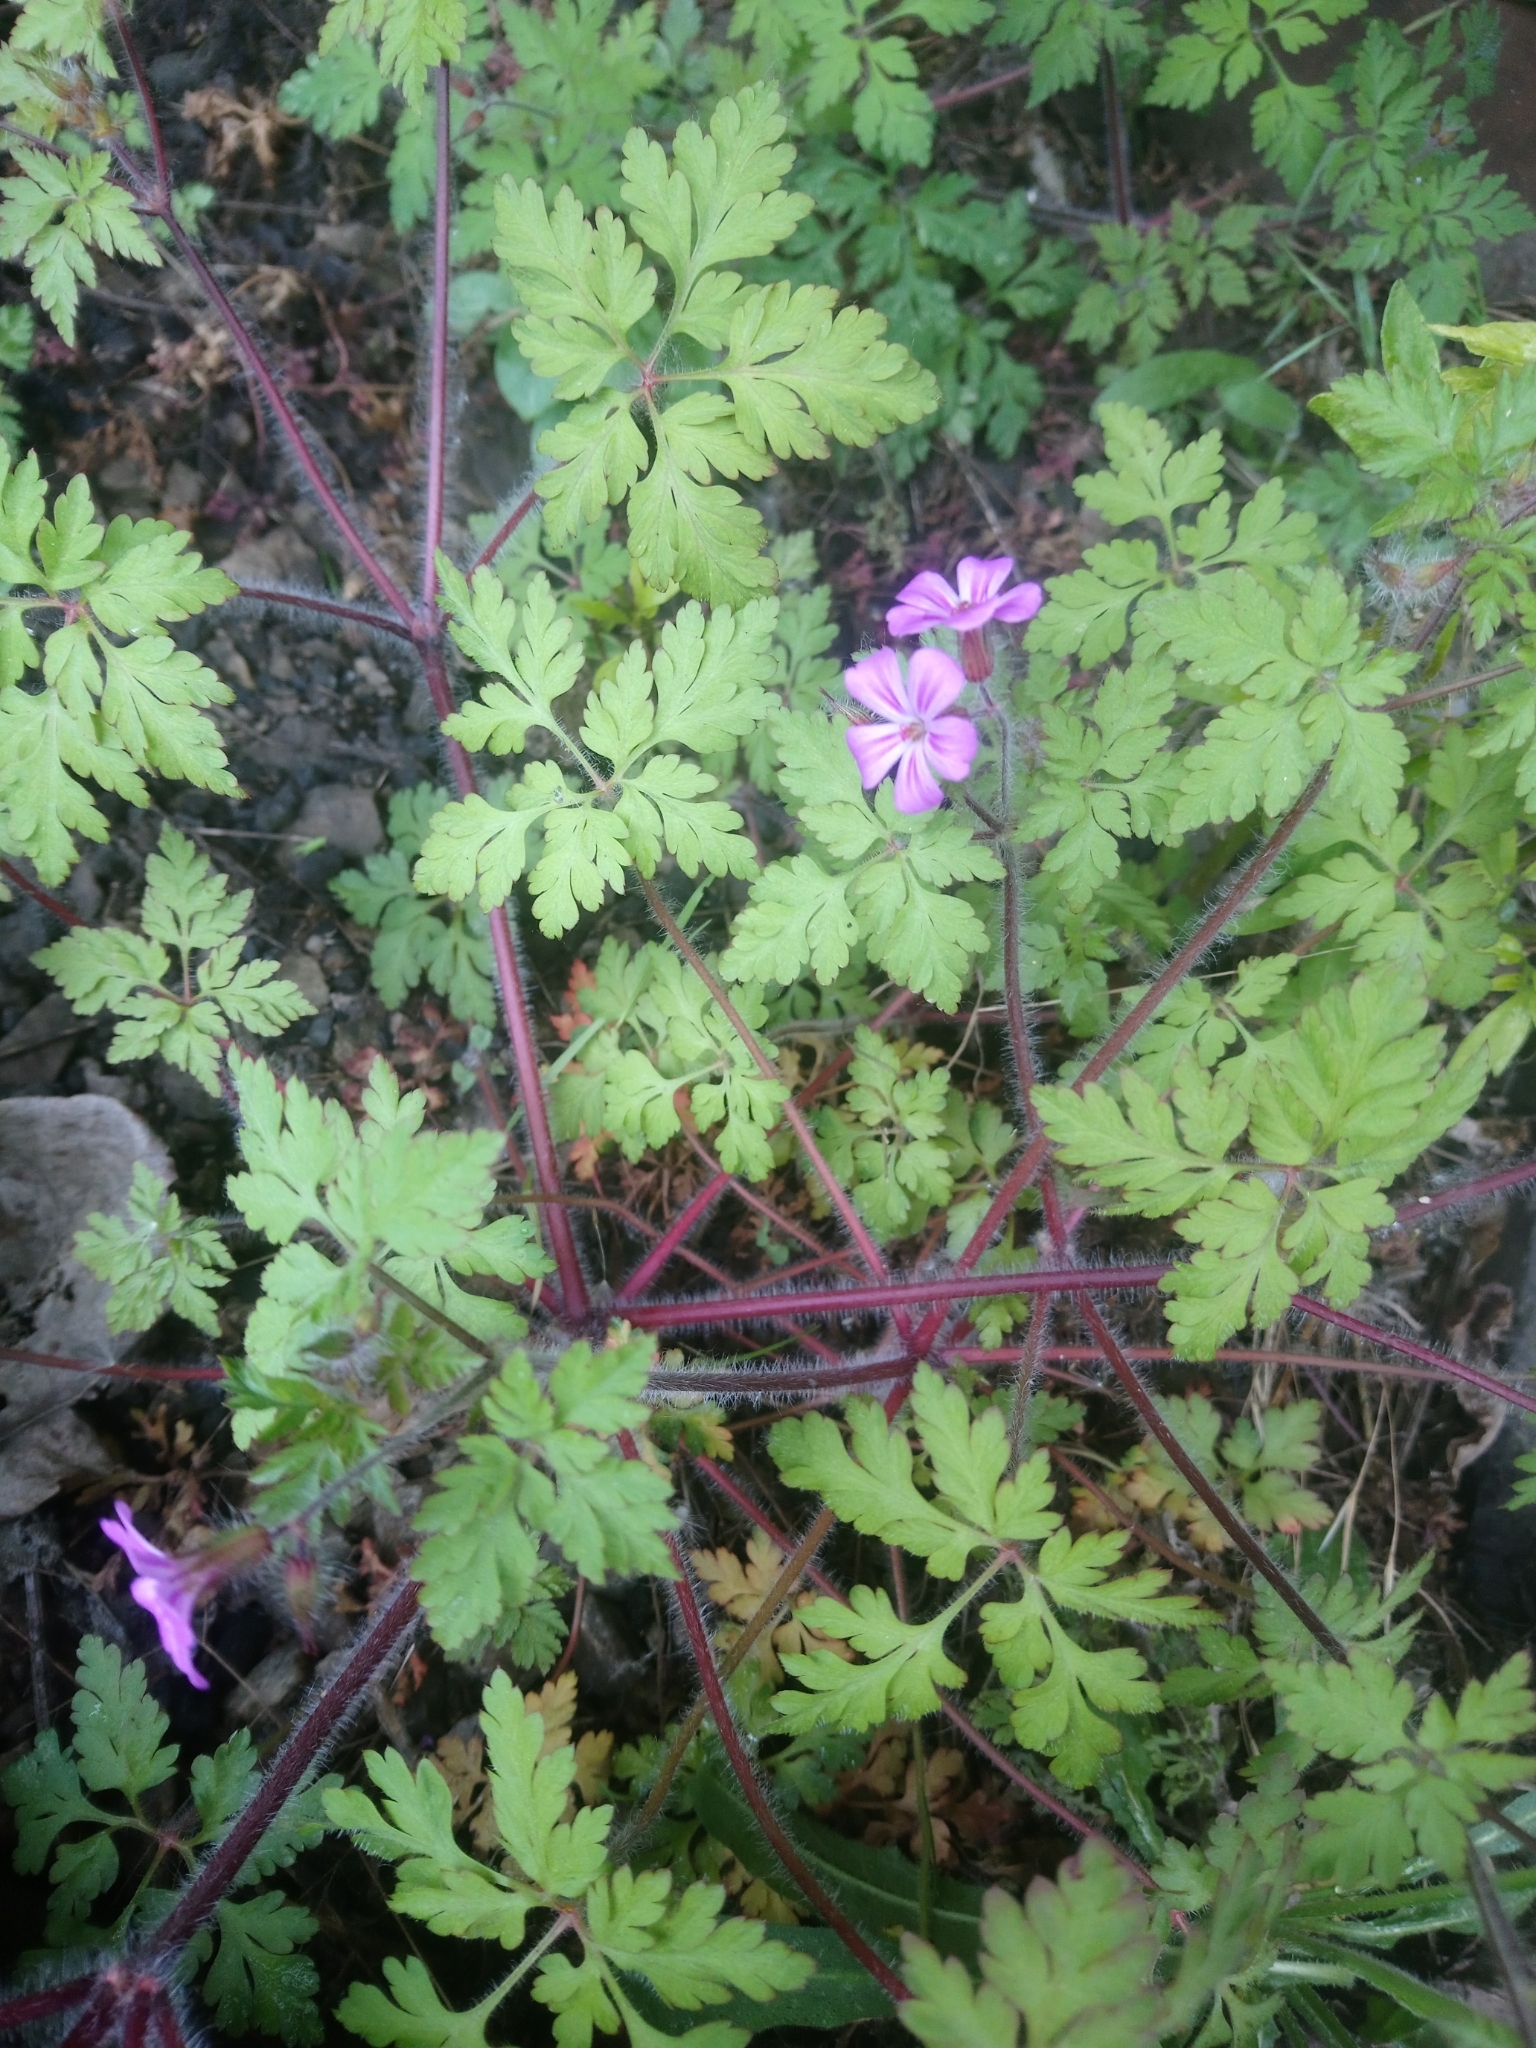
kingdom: Plantae
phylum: Tracheophyta
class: Magnoliopsida
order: Geraniales
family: Geraniaceae
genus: Geranium
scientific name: Geranium robertianum
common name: Herb-robert
